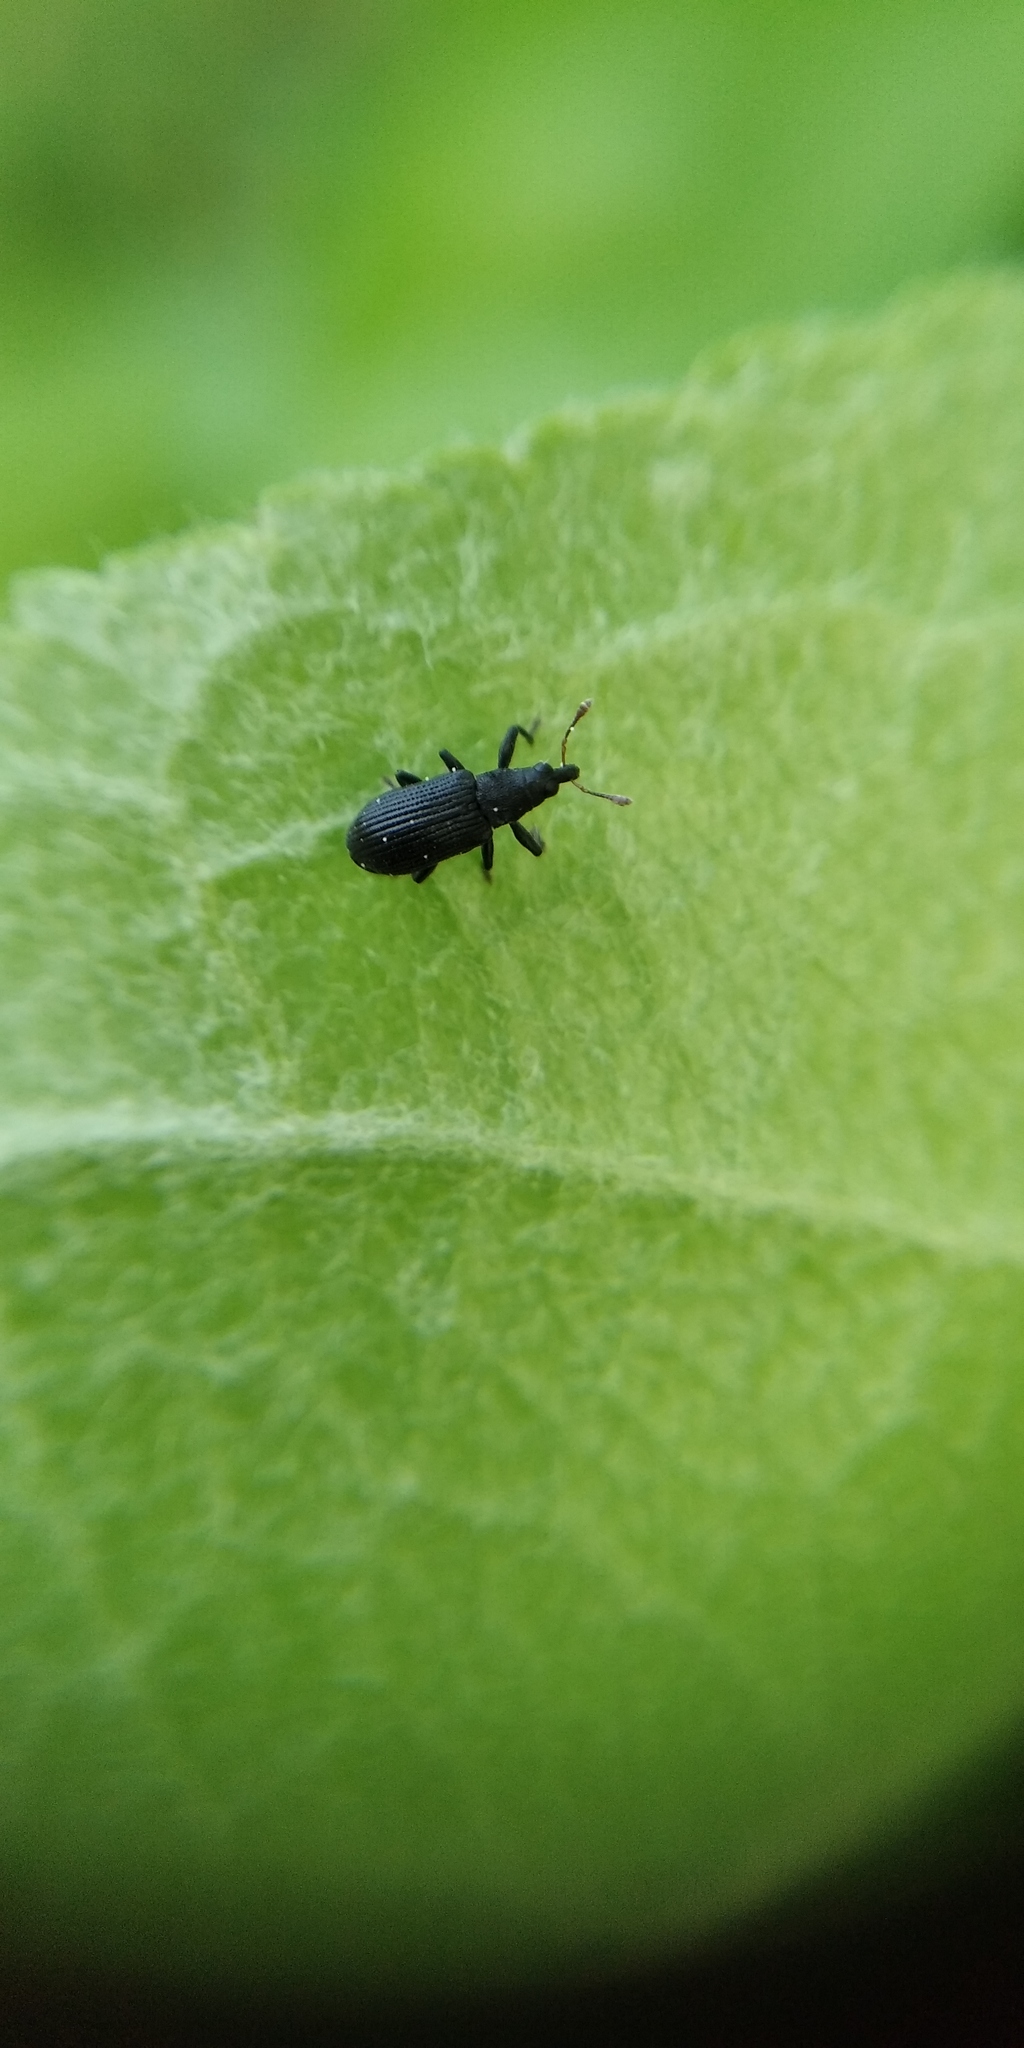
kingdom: Animalia
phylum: Arthropoda
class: Insecta
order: Coleoptera
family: Curculionidae
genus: Magdalis
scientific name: Magdalis ruficornis
